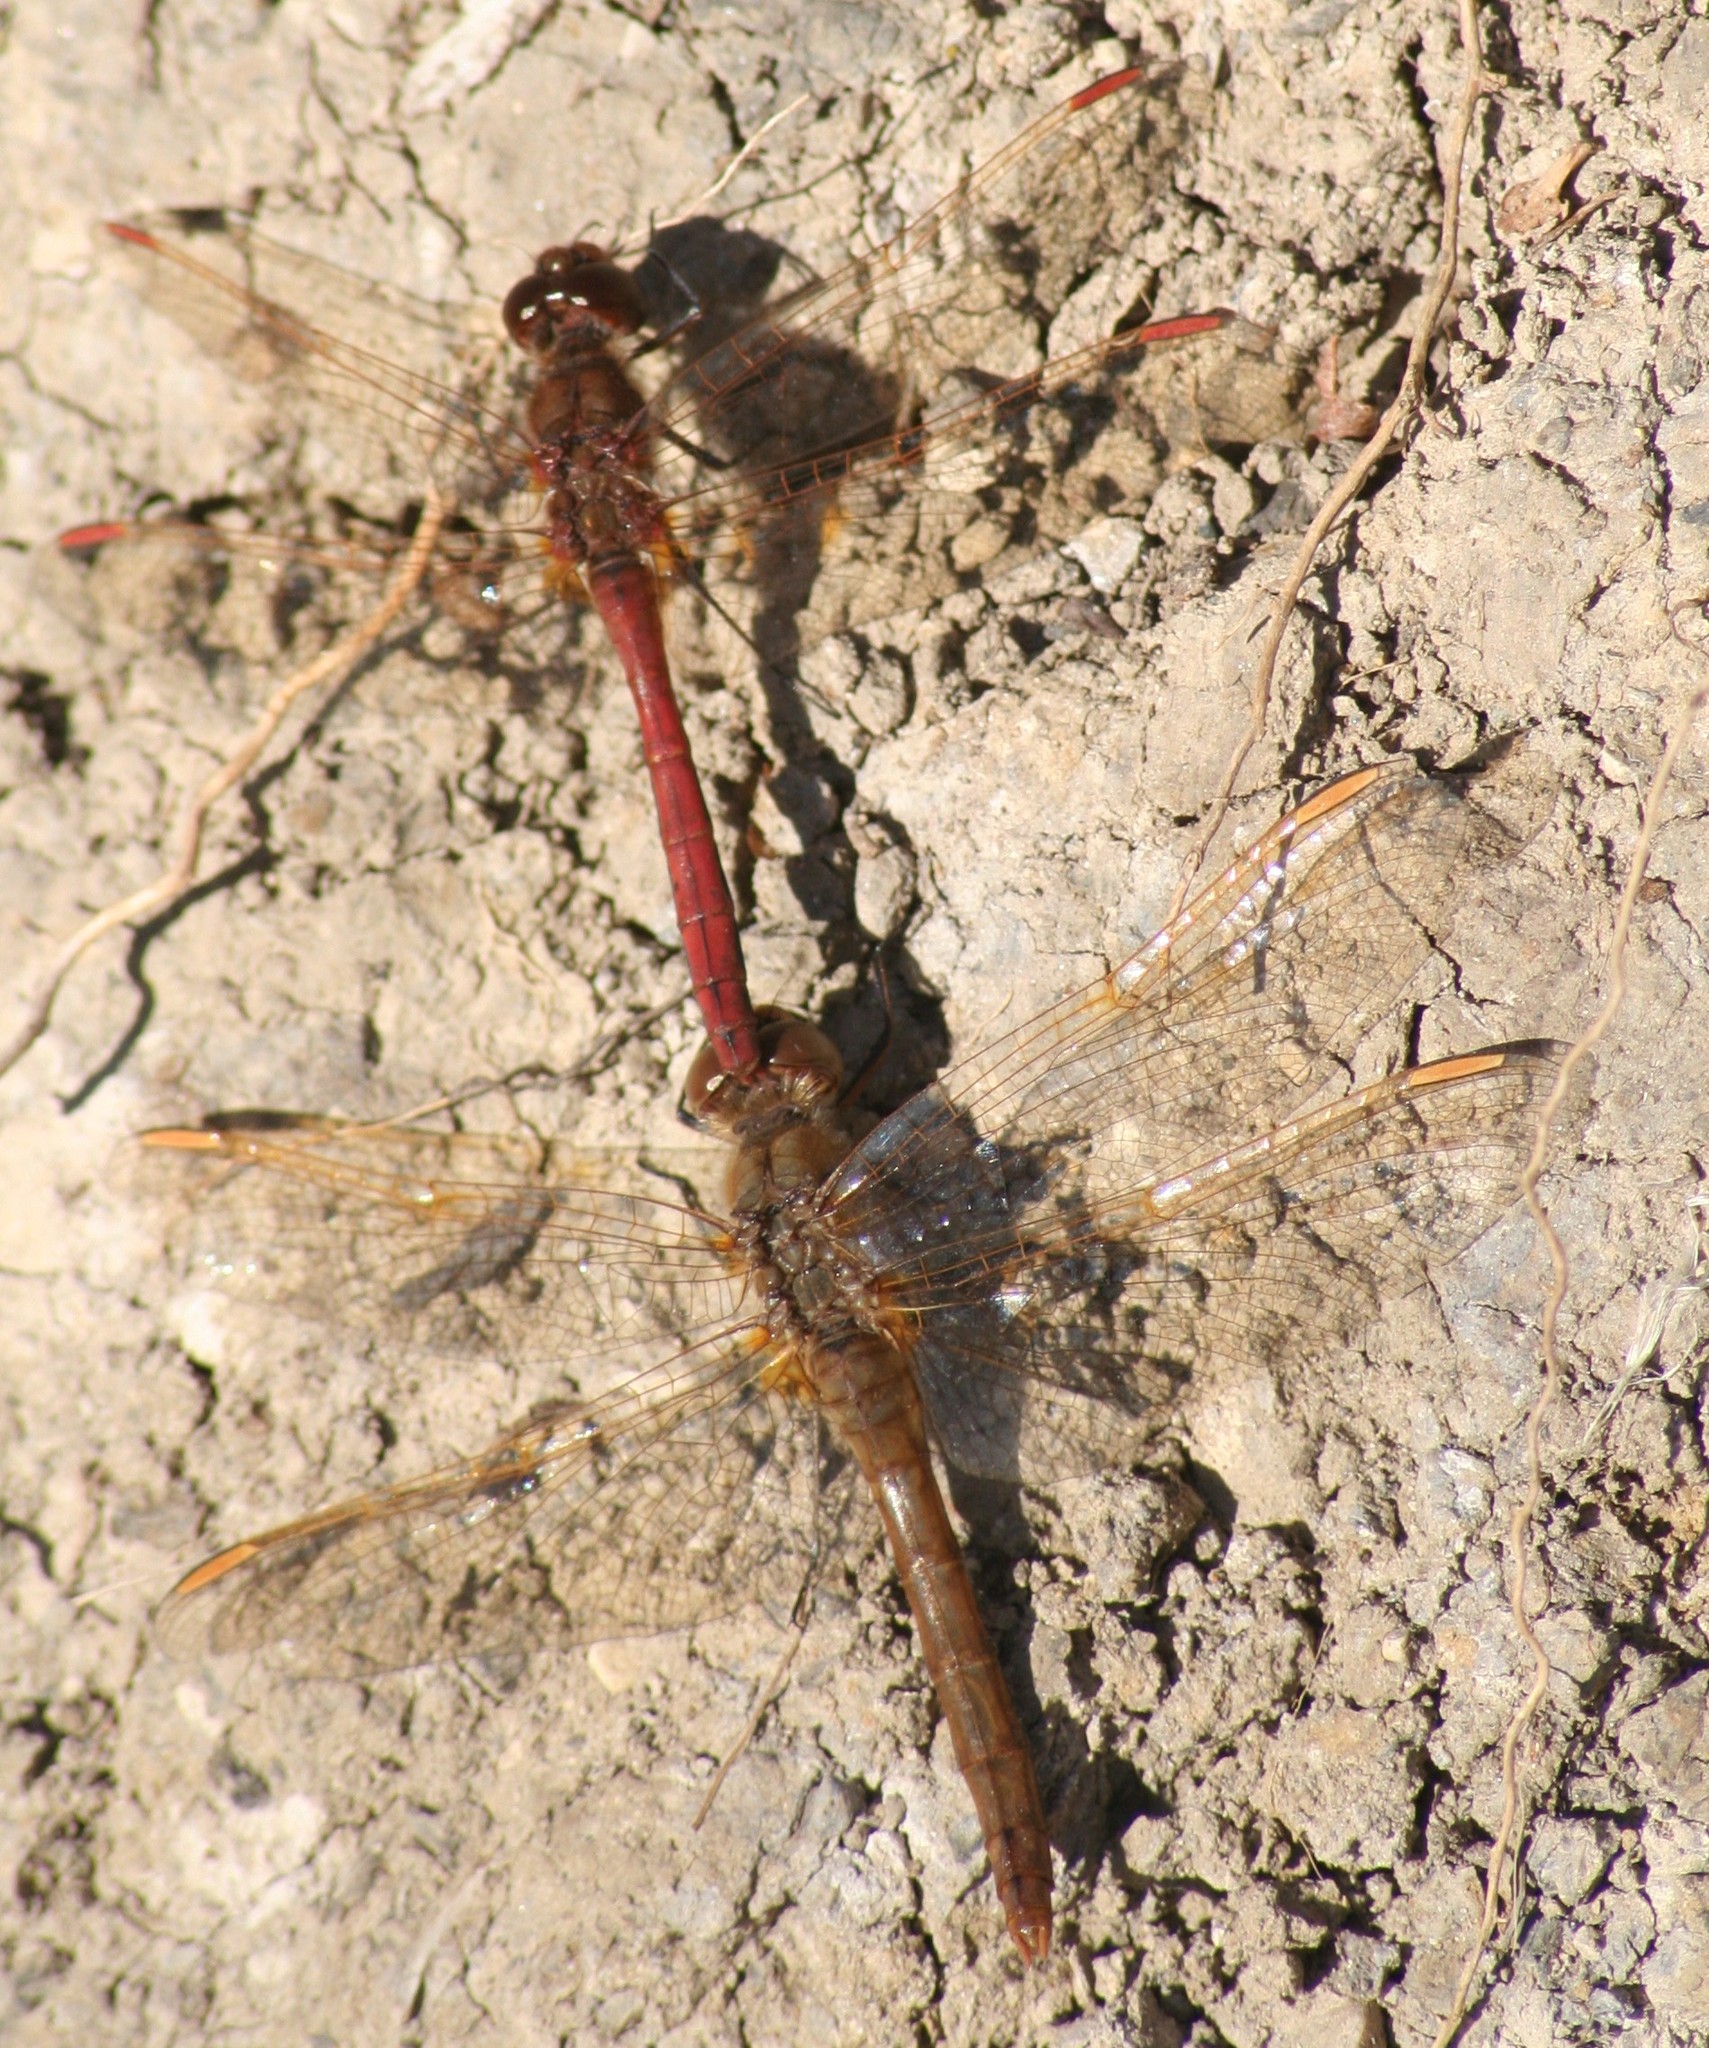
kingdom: Animalia
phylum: Arthropoda
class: Insecta
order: Odonata
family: Libellulidae
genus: Sympetrum
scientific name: Sympetrum costiferum
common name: Saffron-winged meadowhawk
